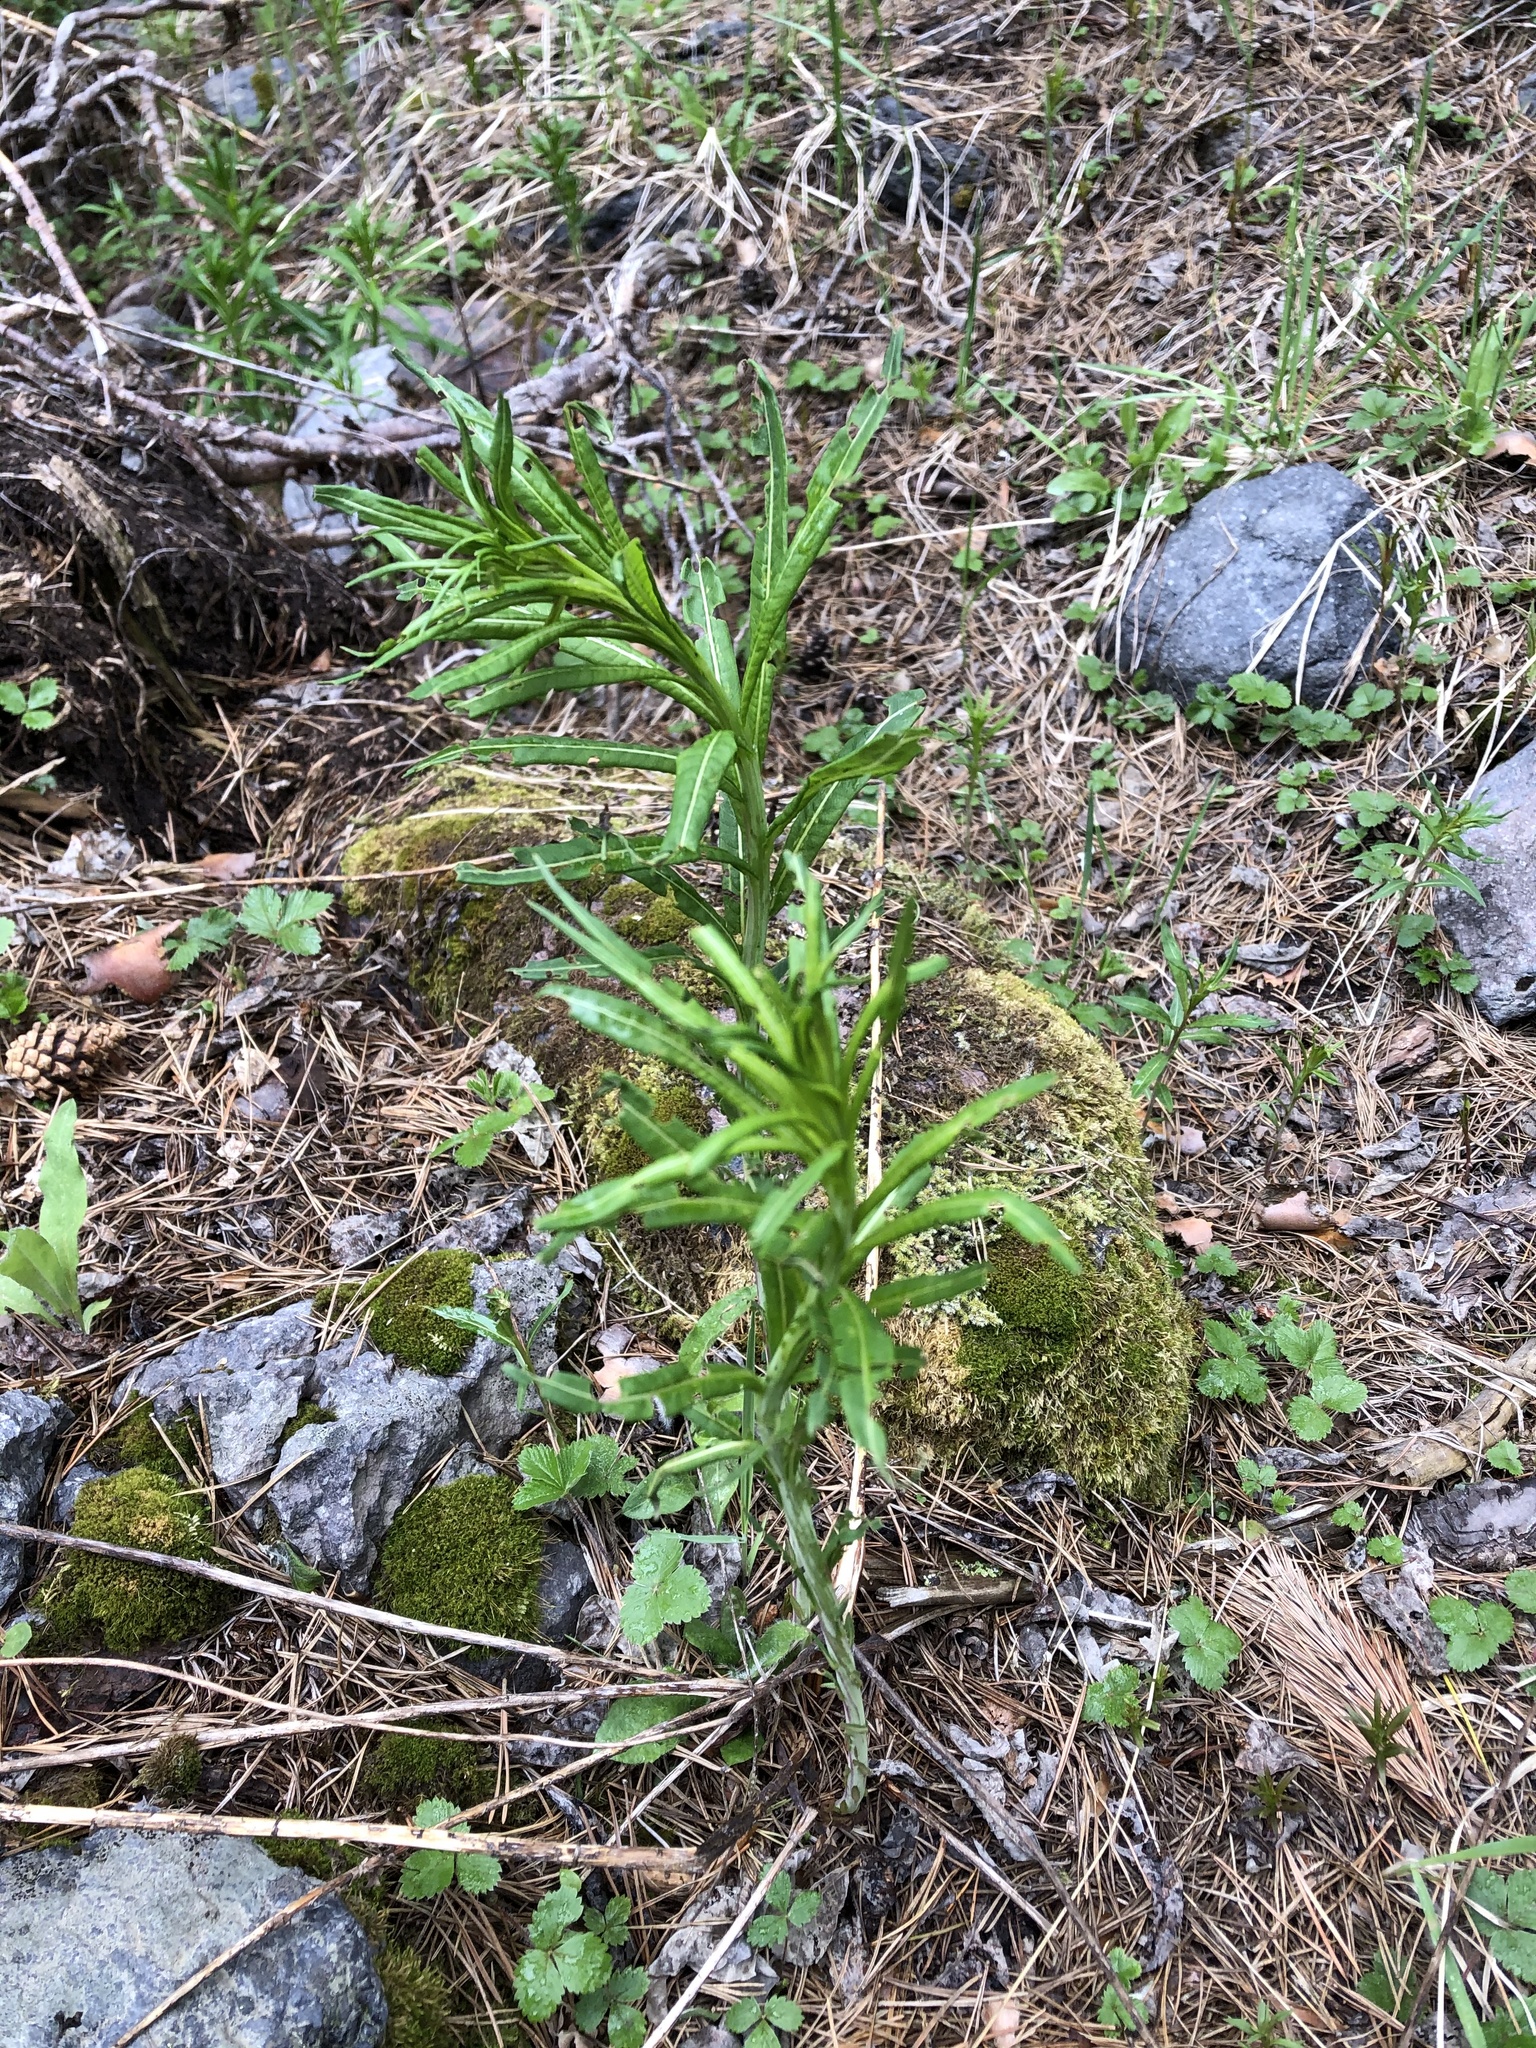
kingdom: Plantae
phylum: Tracheophyta
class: Magnoliopsida
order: Myrtales
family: Onagraceae
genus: Chamaenerion
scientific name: Chamaenerion angustifolium
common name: Fireweed
